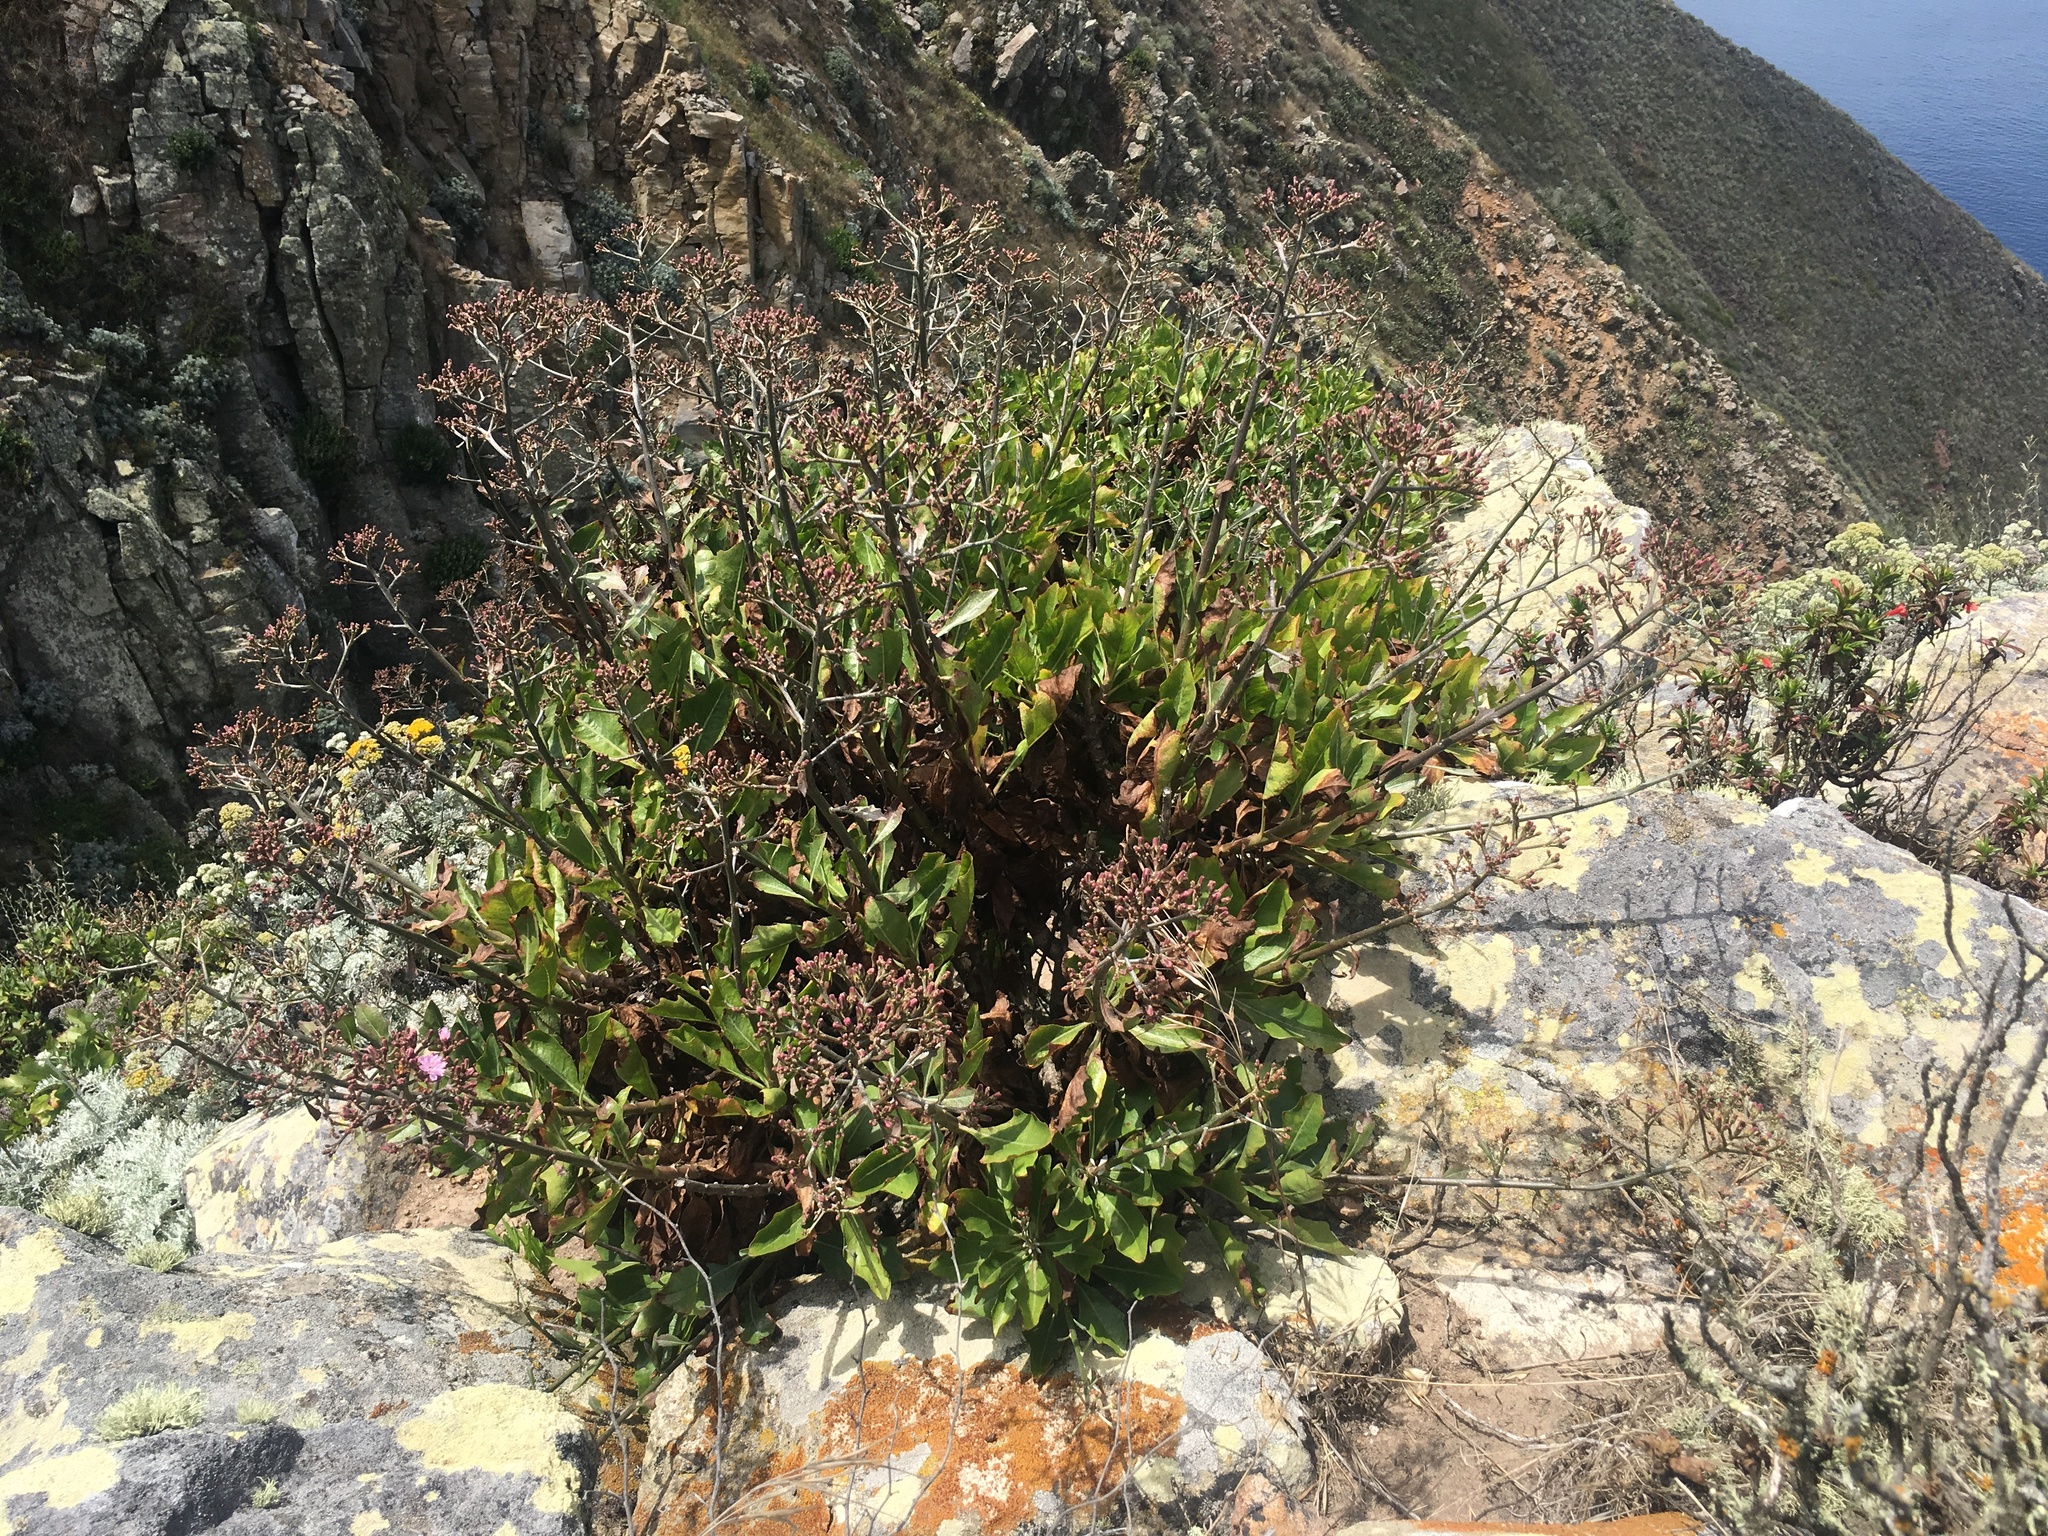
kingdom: Plantae
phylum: Tracheophyta
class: Magnoliopsida
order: Asterales
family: Asteraceae
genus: Munzothamnus
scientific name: Munzothamnus blairii
